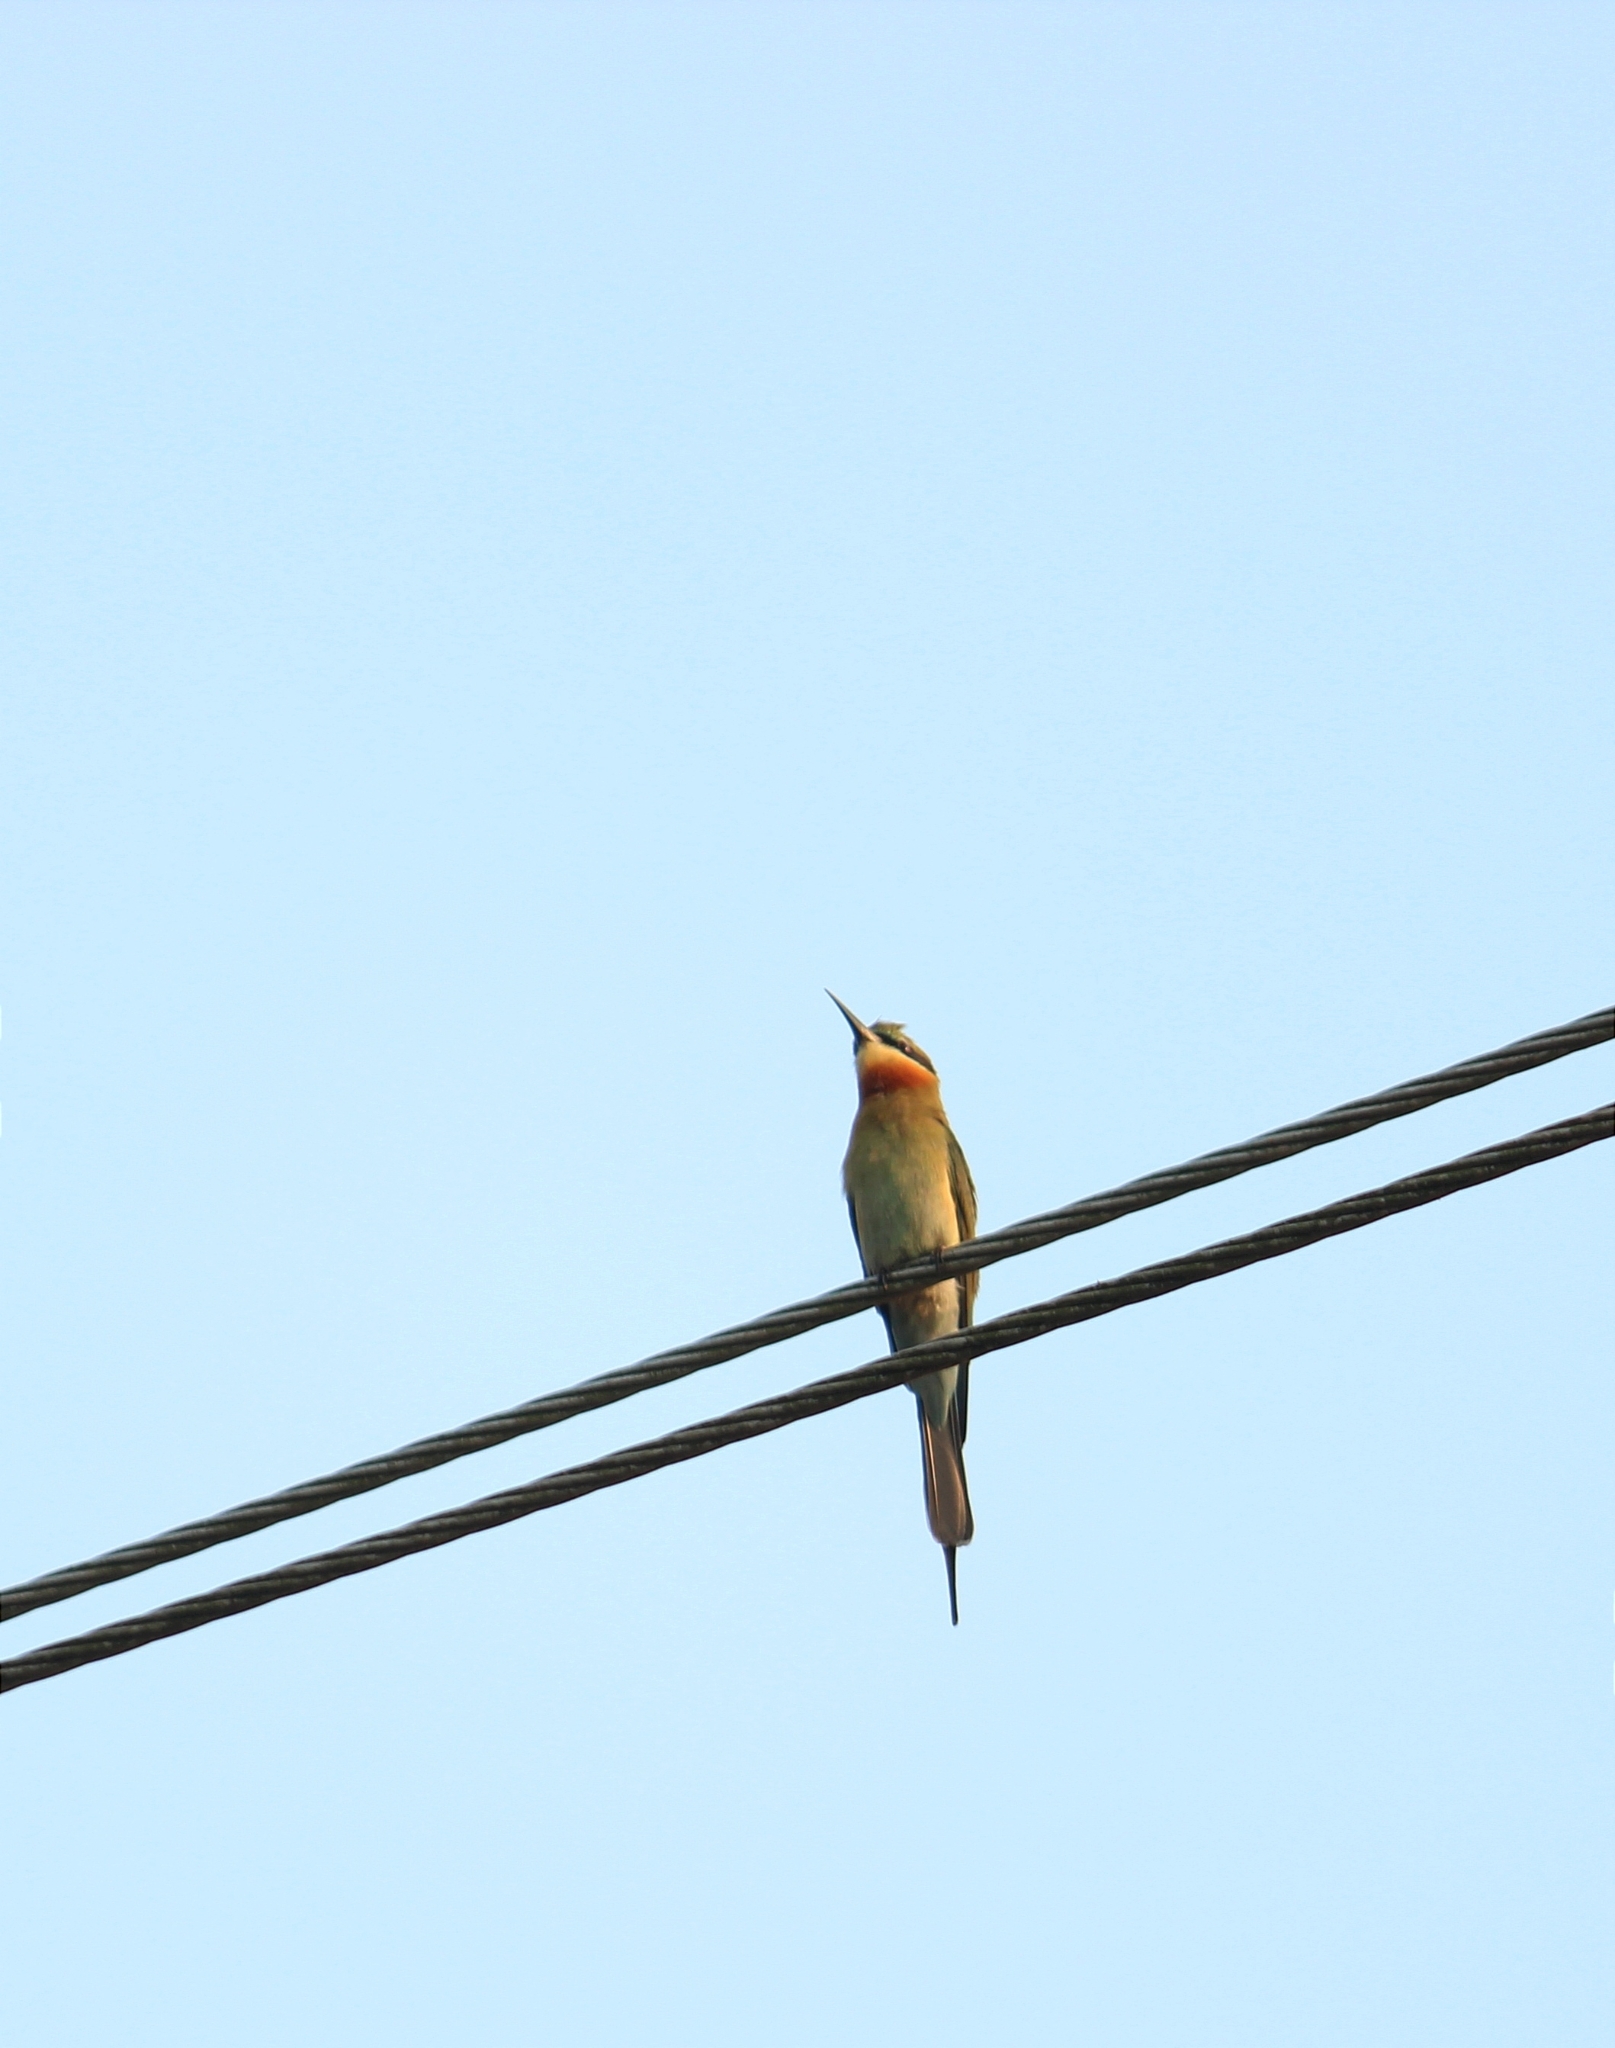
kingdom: Animalia
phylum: Chordata
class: Aves
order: Coraciiformes
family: Meropidae
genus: Merops
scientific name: Merops philippinus
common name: Blue-tailed bee-eater
